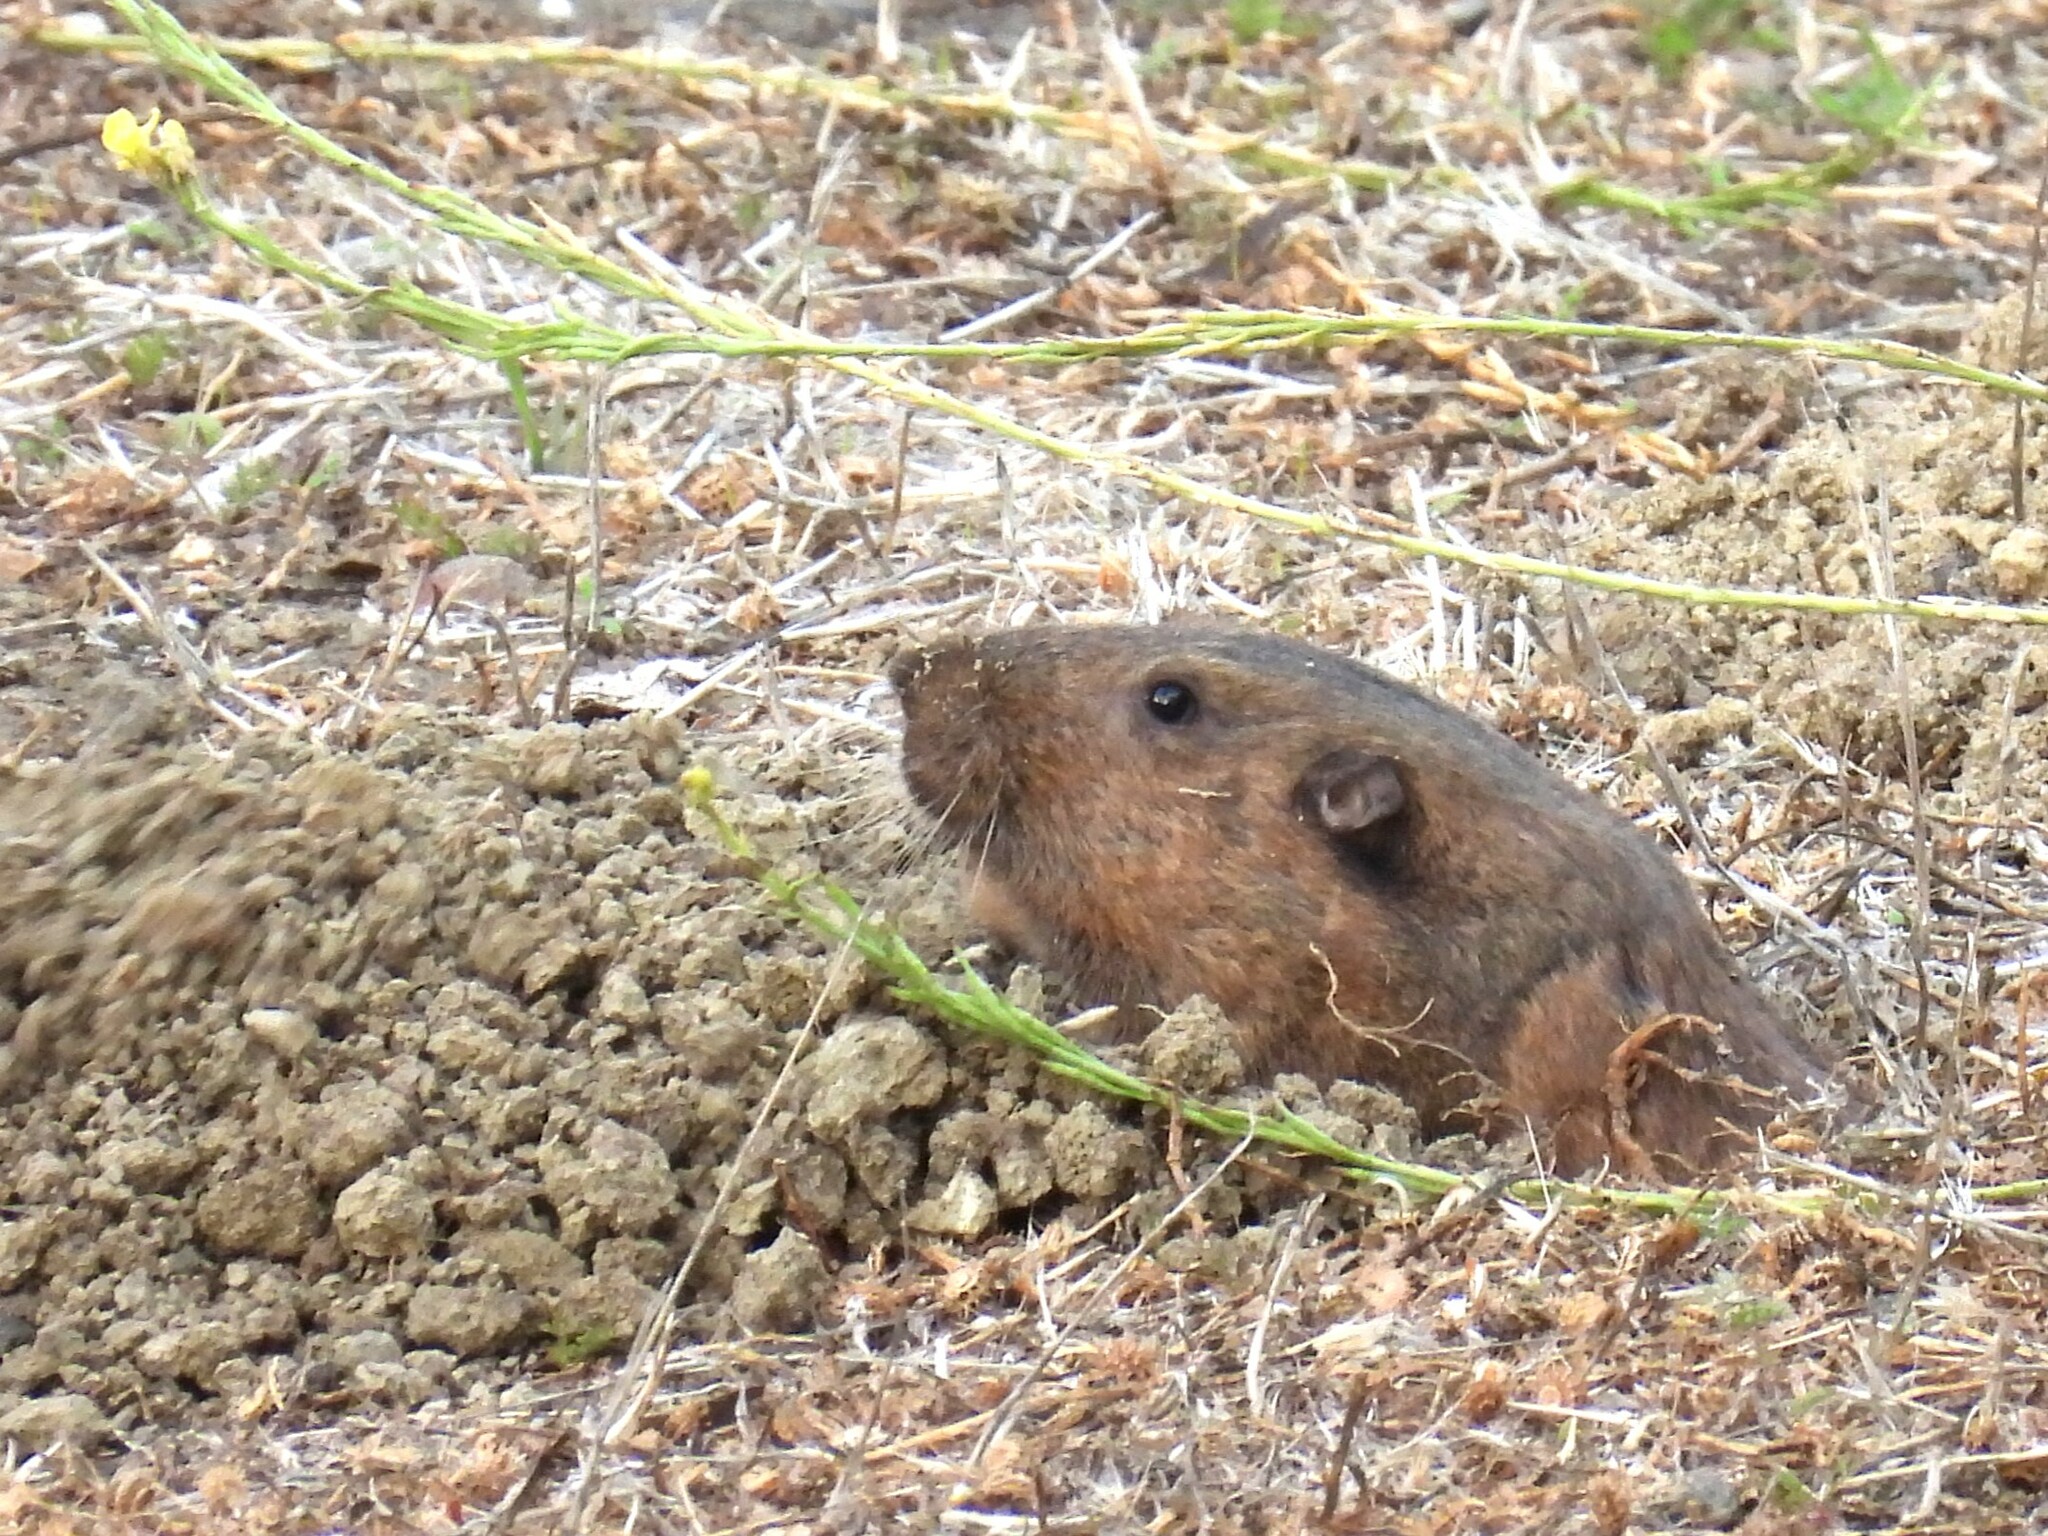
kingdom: Animalia
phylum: Chordata
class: Mammalia
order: Rodentia
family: Geomyidae
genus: Thomomys
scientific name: Thomomys bottae
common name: Botta's pocket gopher
